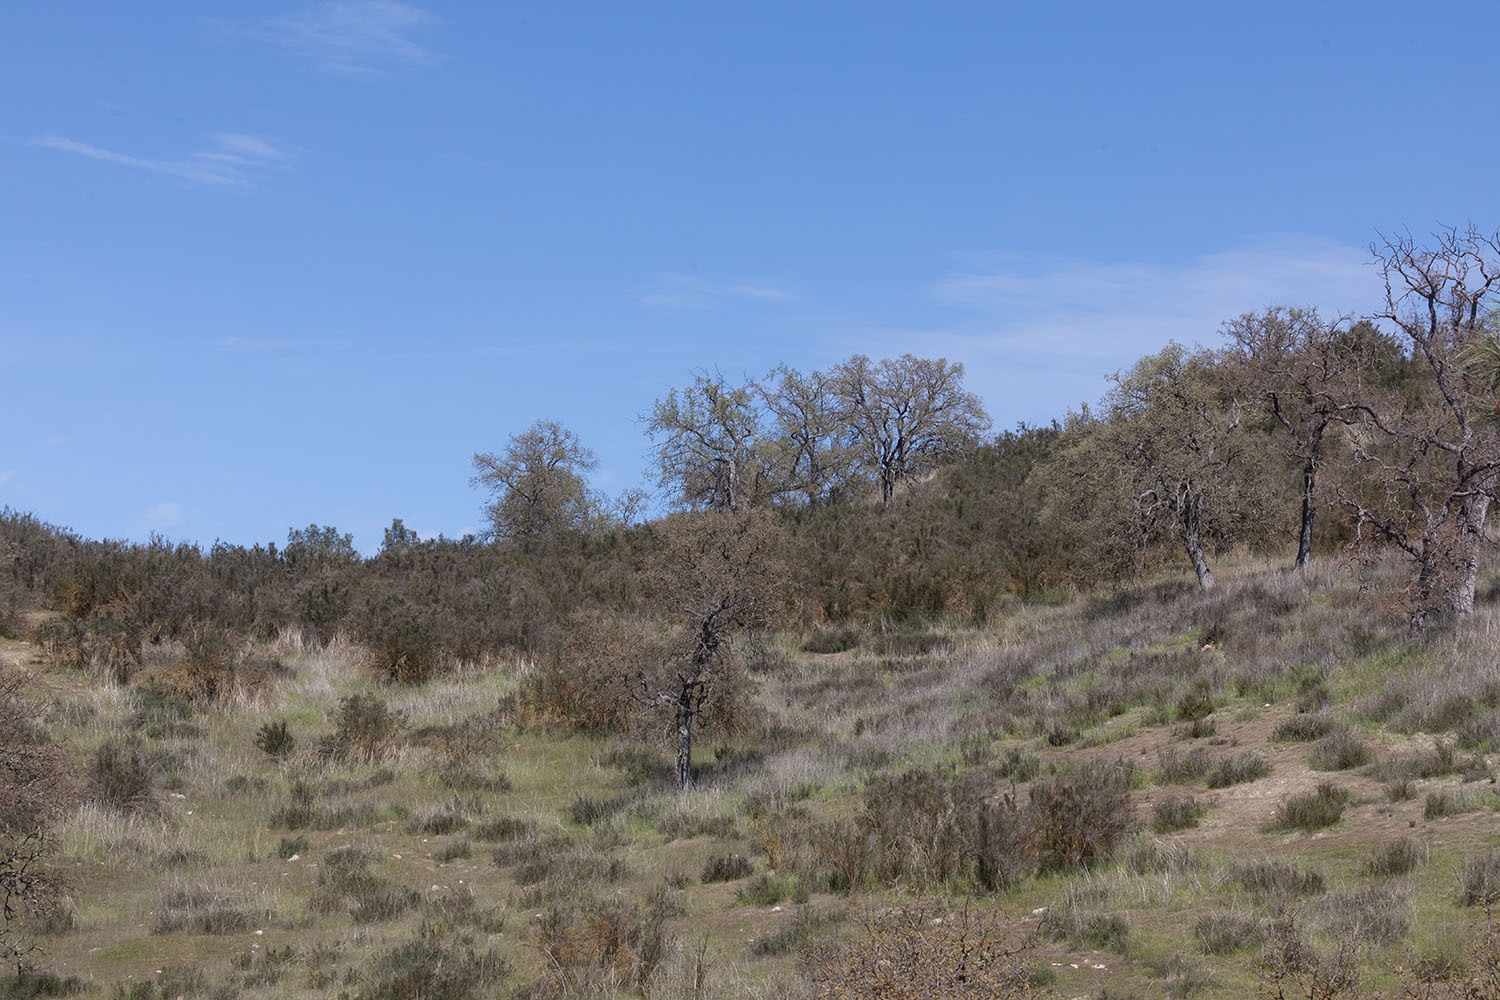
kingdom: Animalia
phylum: Chordata
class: Aves
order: Falconiformes
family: Falconidae
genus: Falco
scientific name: Falco sparverius
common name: American kestrel
